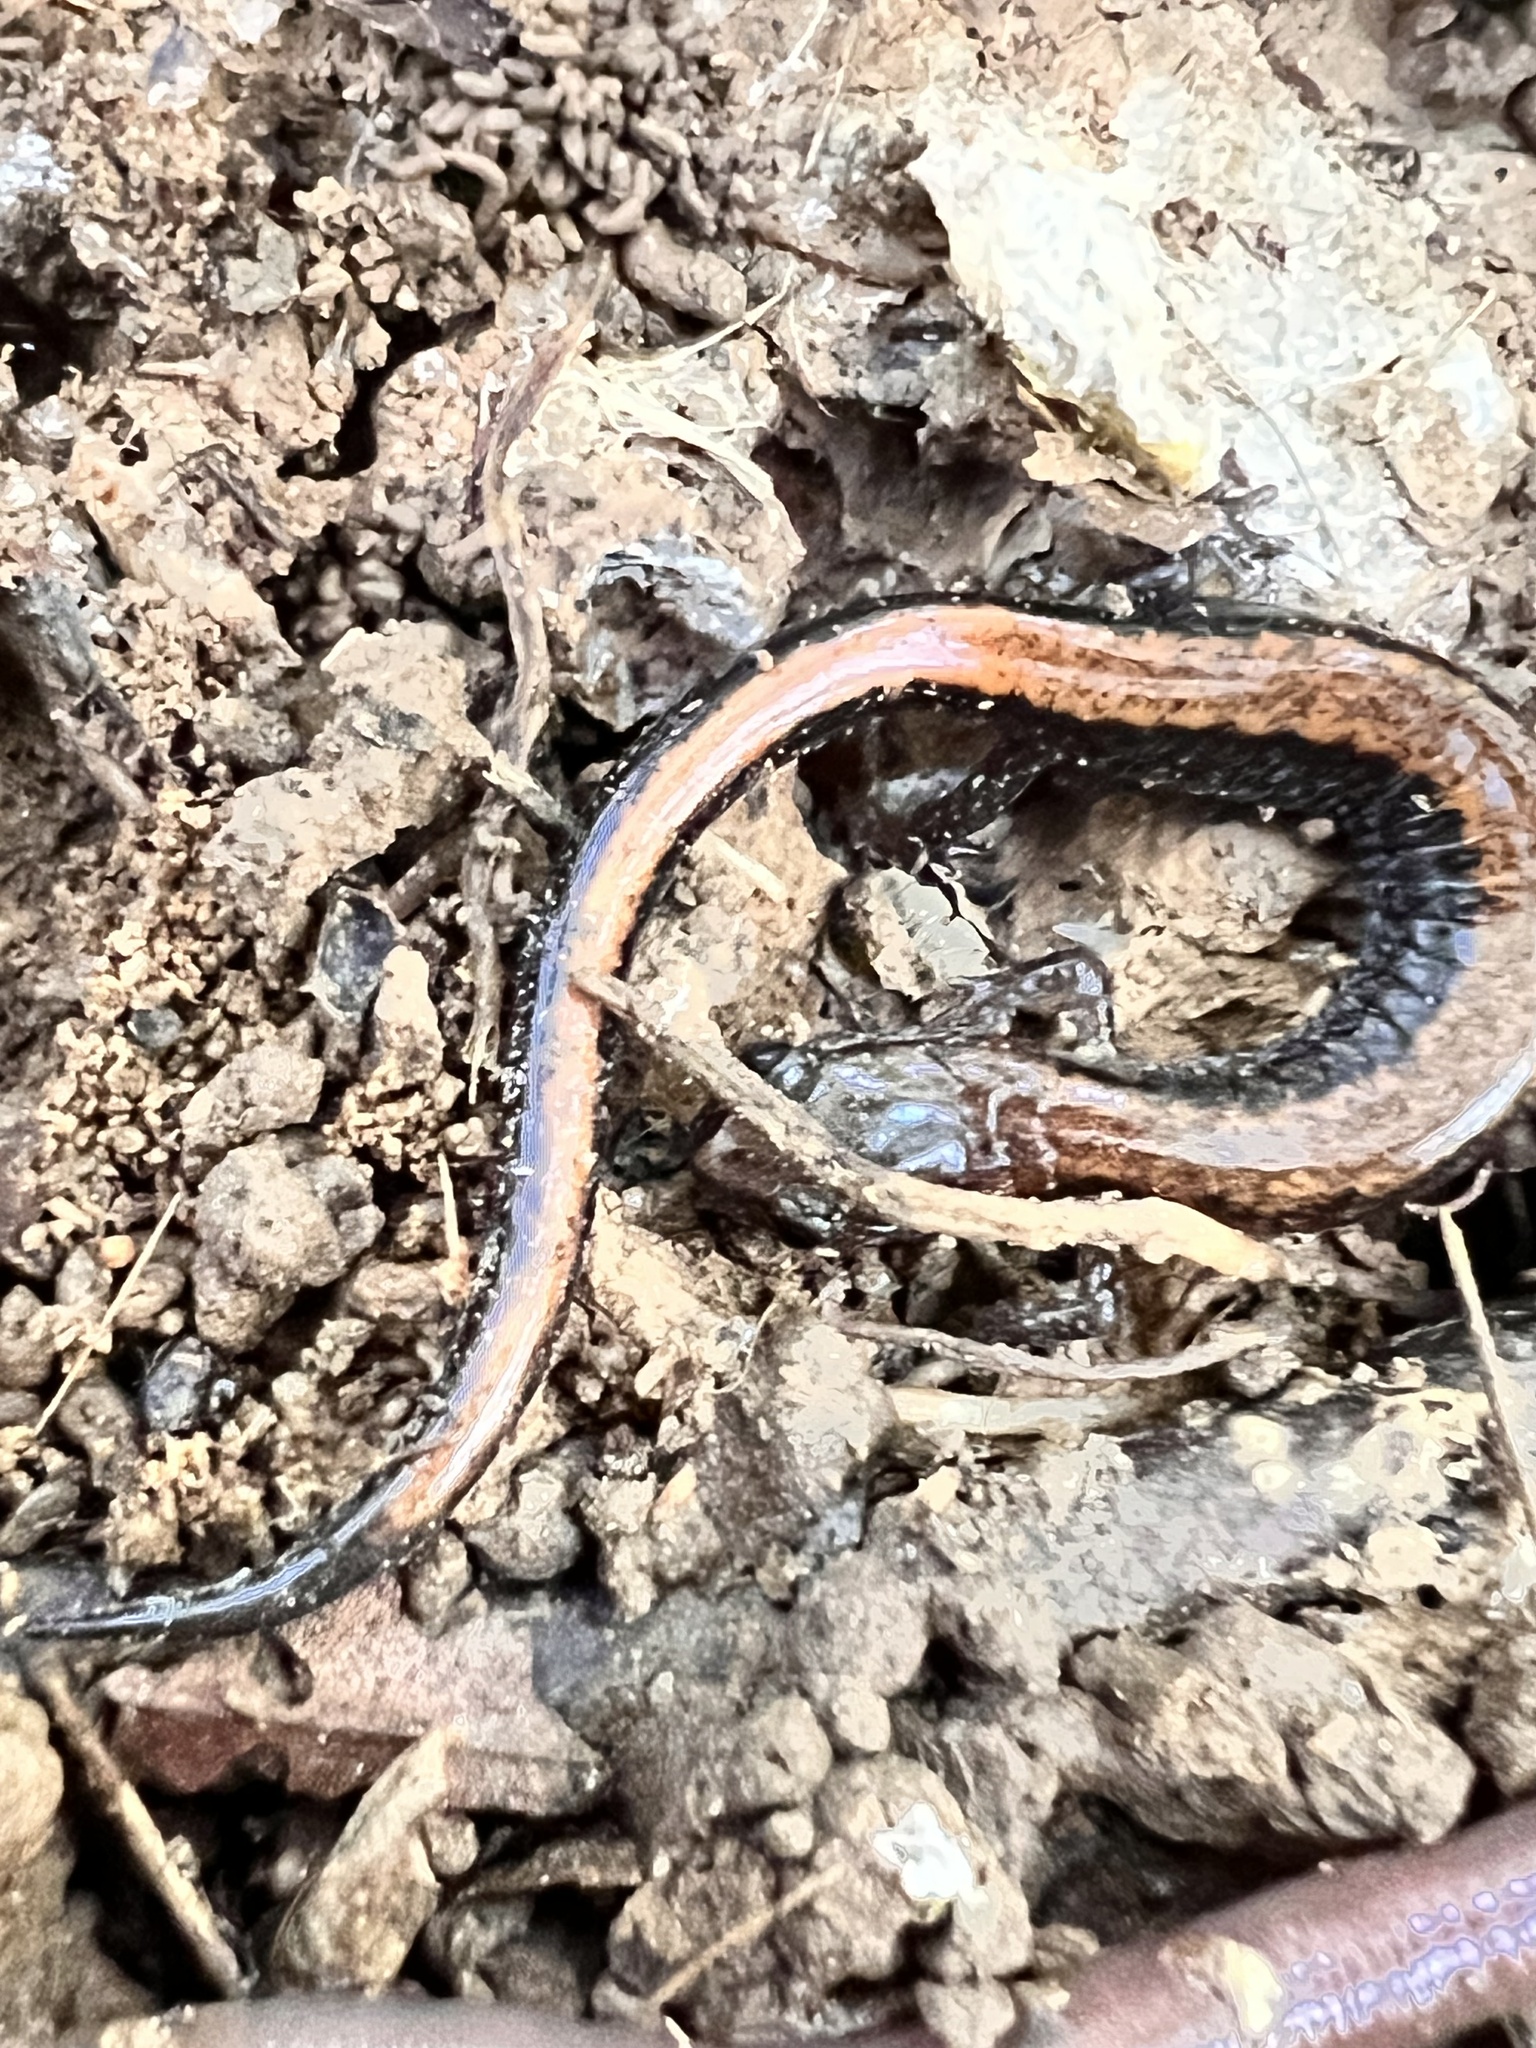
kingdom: Animalia
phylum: Chordata
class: Amphibia
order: Caudata
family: Plethodontidae
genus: Plethodon
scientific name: Plethodon cinereus
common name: Redback salamander
